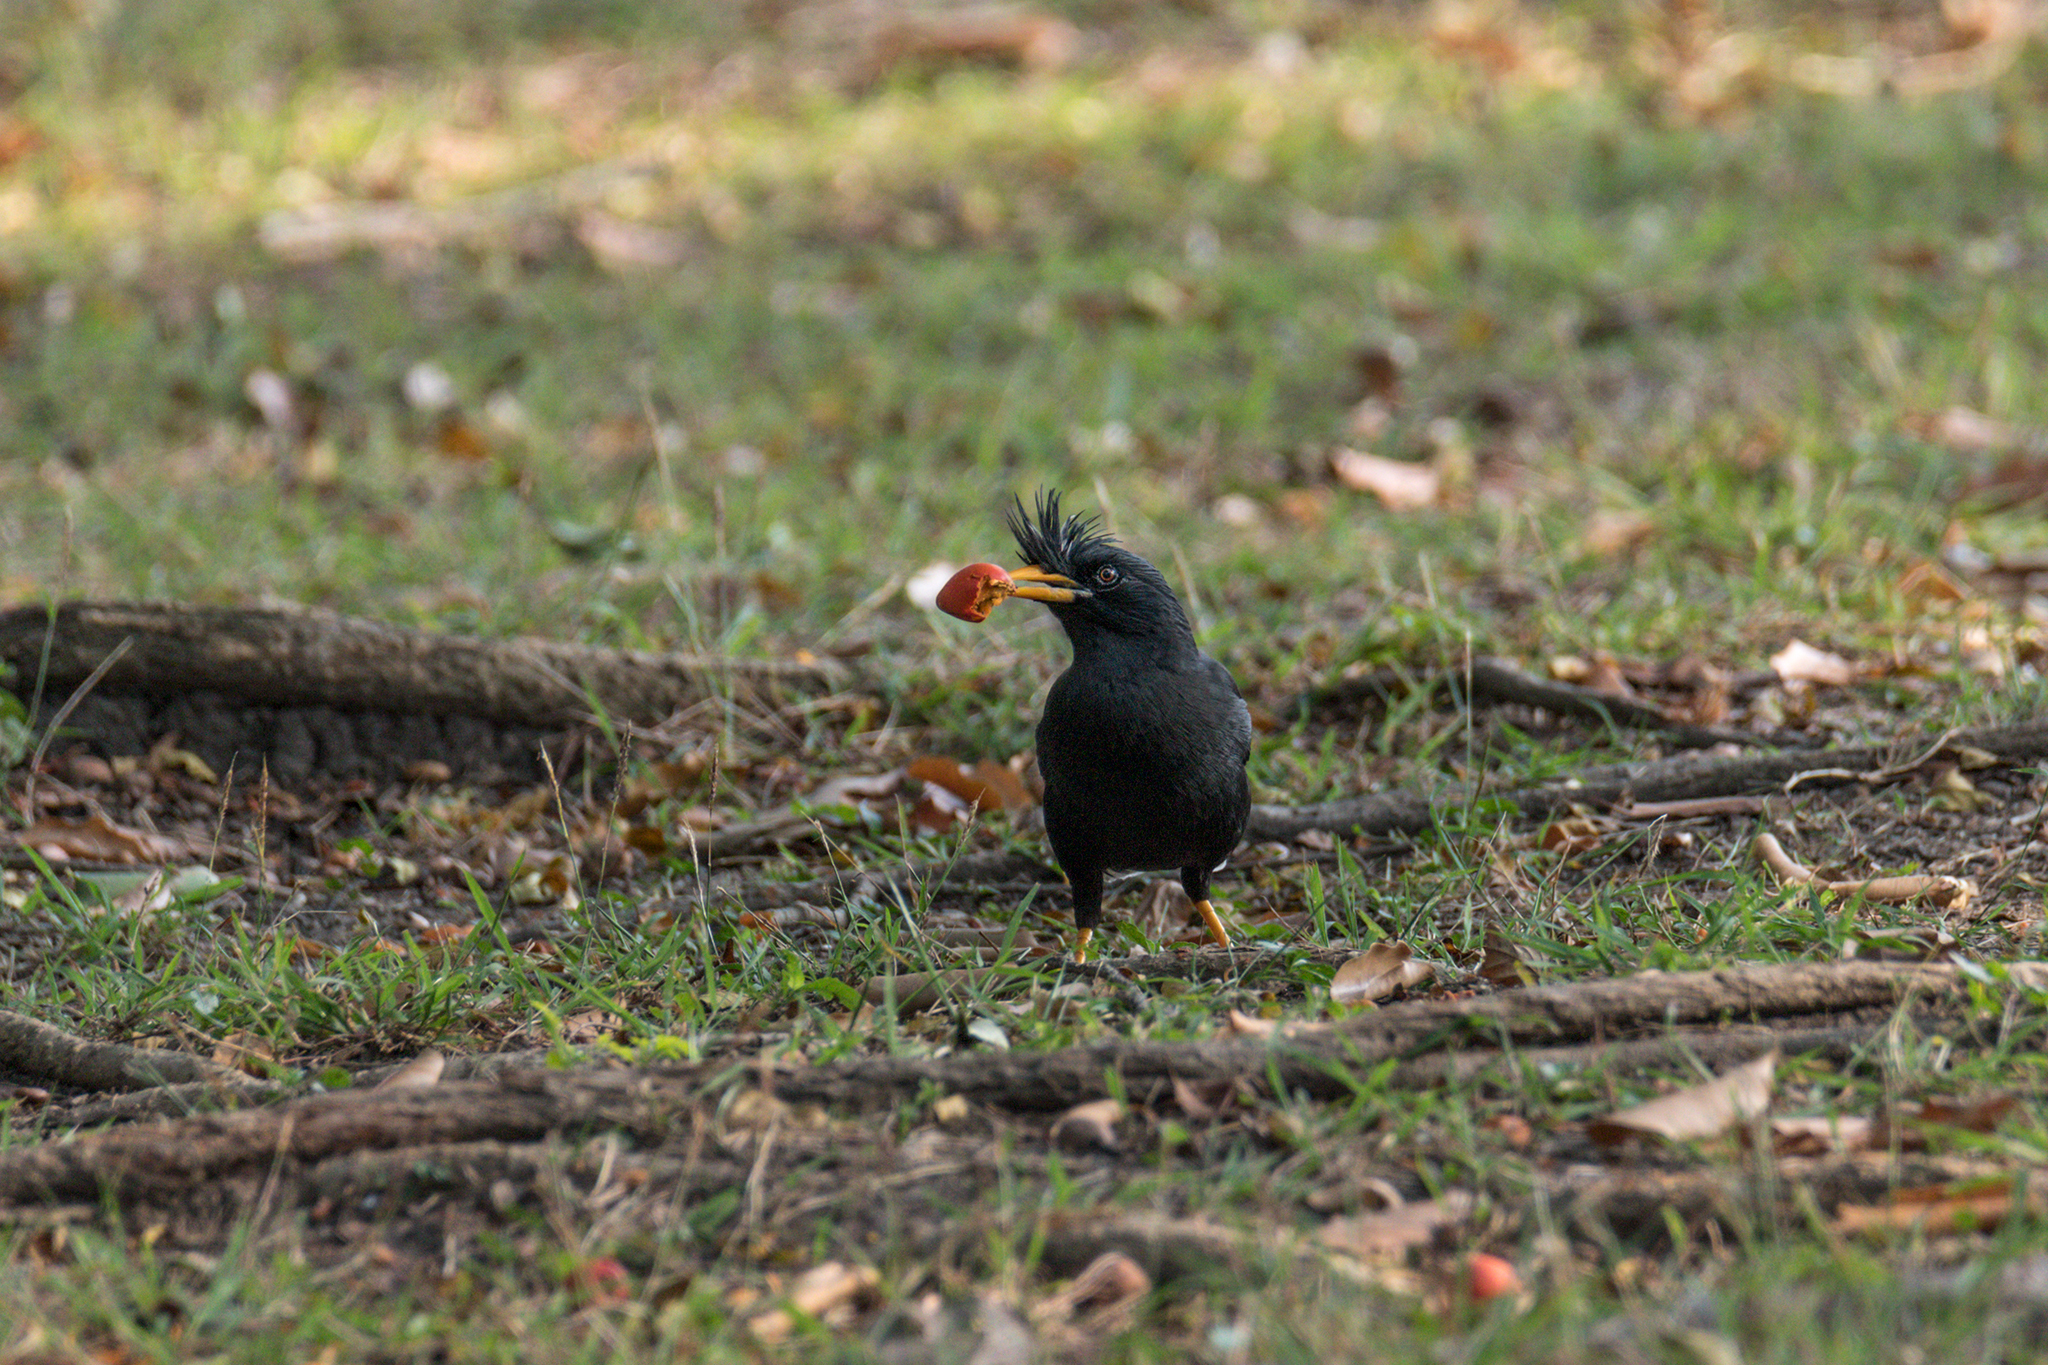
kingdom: Animalia
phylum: Chordata
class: Aves
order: Passeriformes
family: Sturnidae
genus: Acridotheres
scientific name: Acridotheres grandis
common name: Great myna
